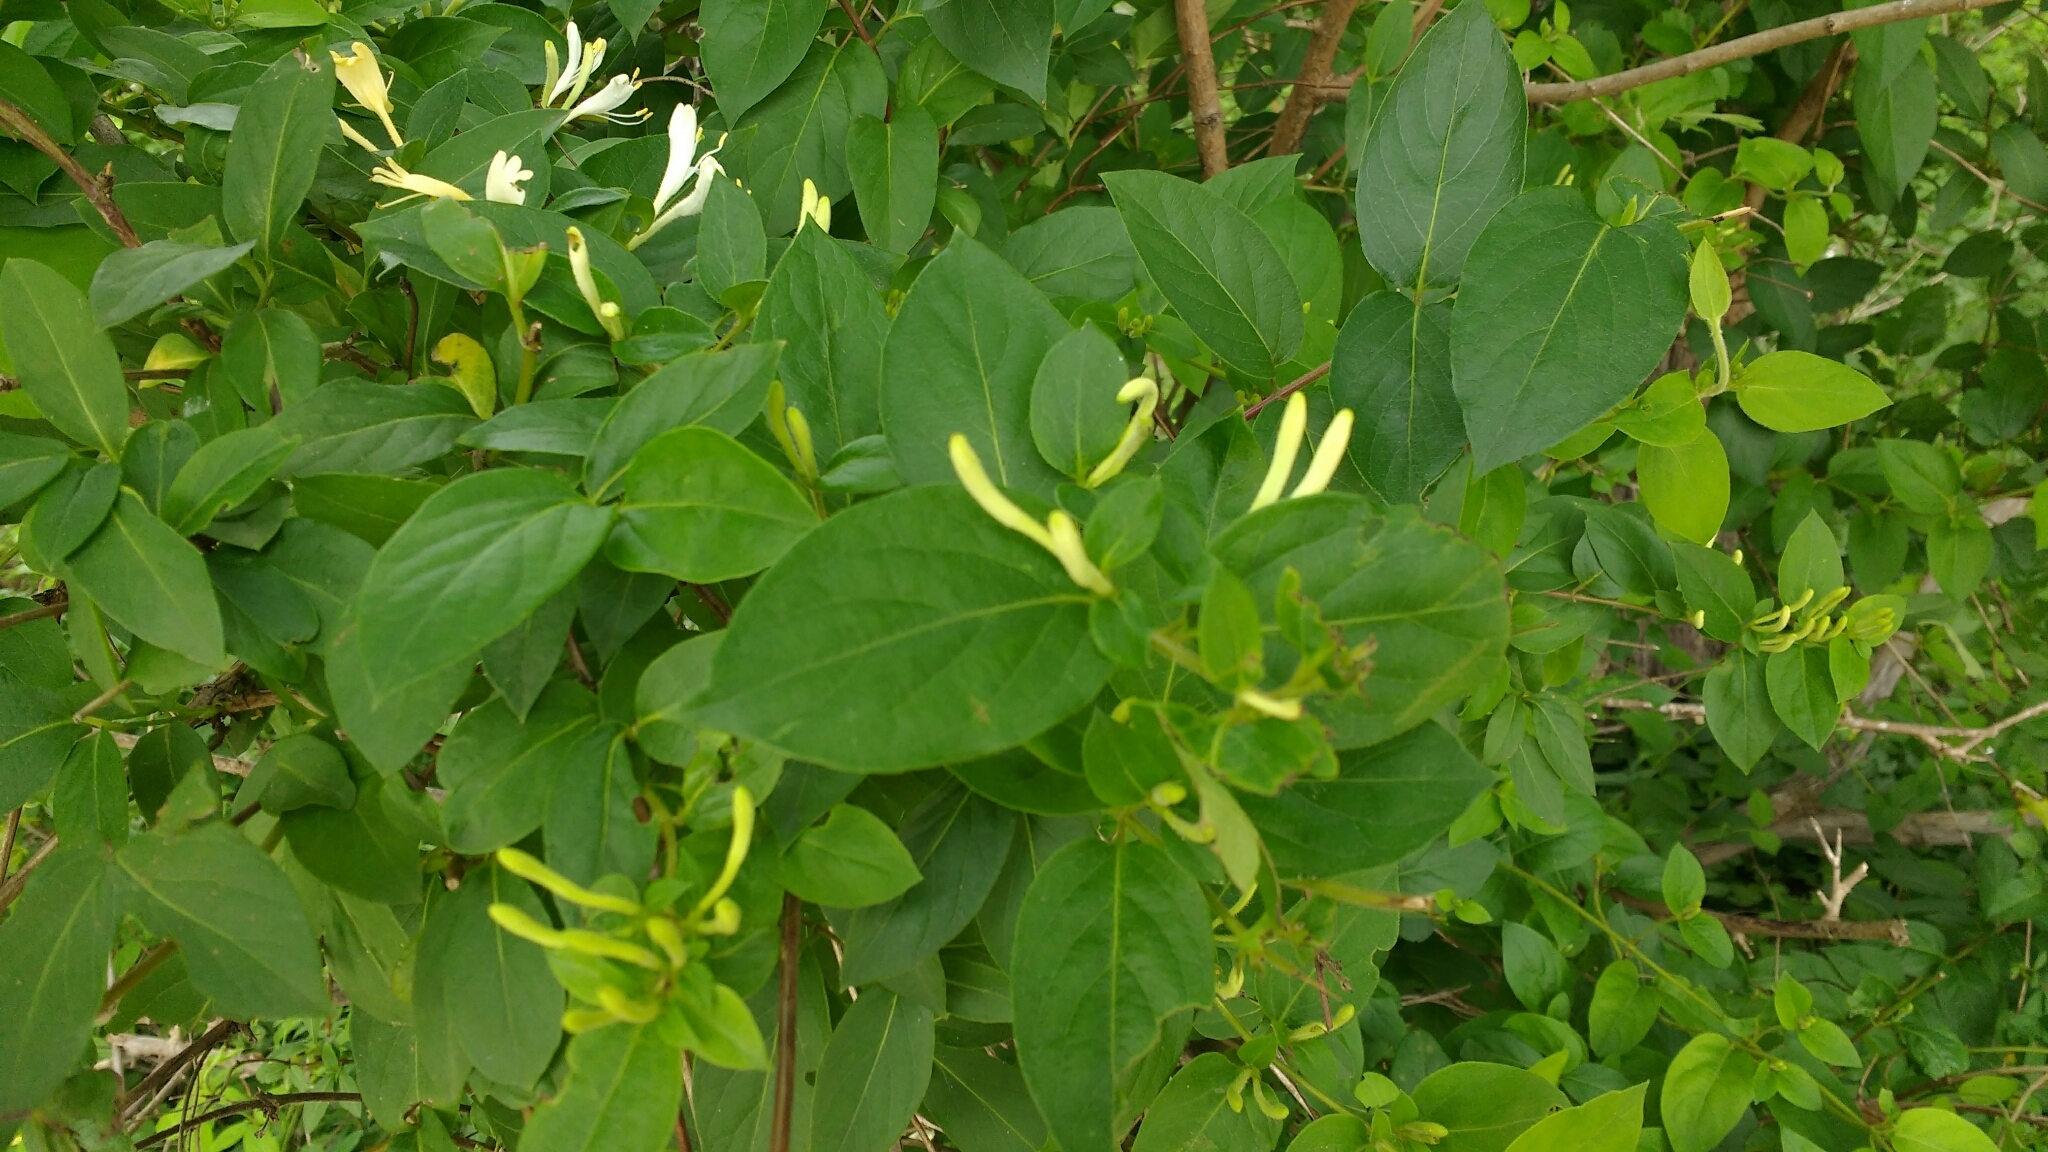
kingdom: Plantae
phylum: Tracheophyta
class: Magnoliopsida
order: Dipsacales
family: Caprifoliaceae
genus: Lonicera
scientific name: Lonicera japonica
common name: Japanese honeysuckle
